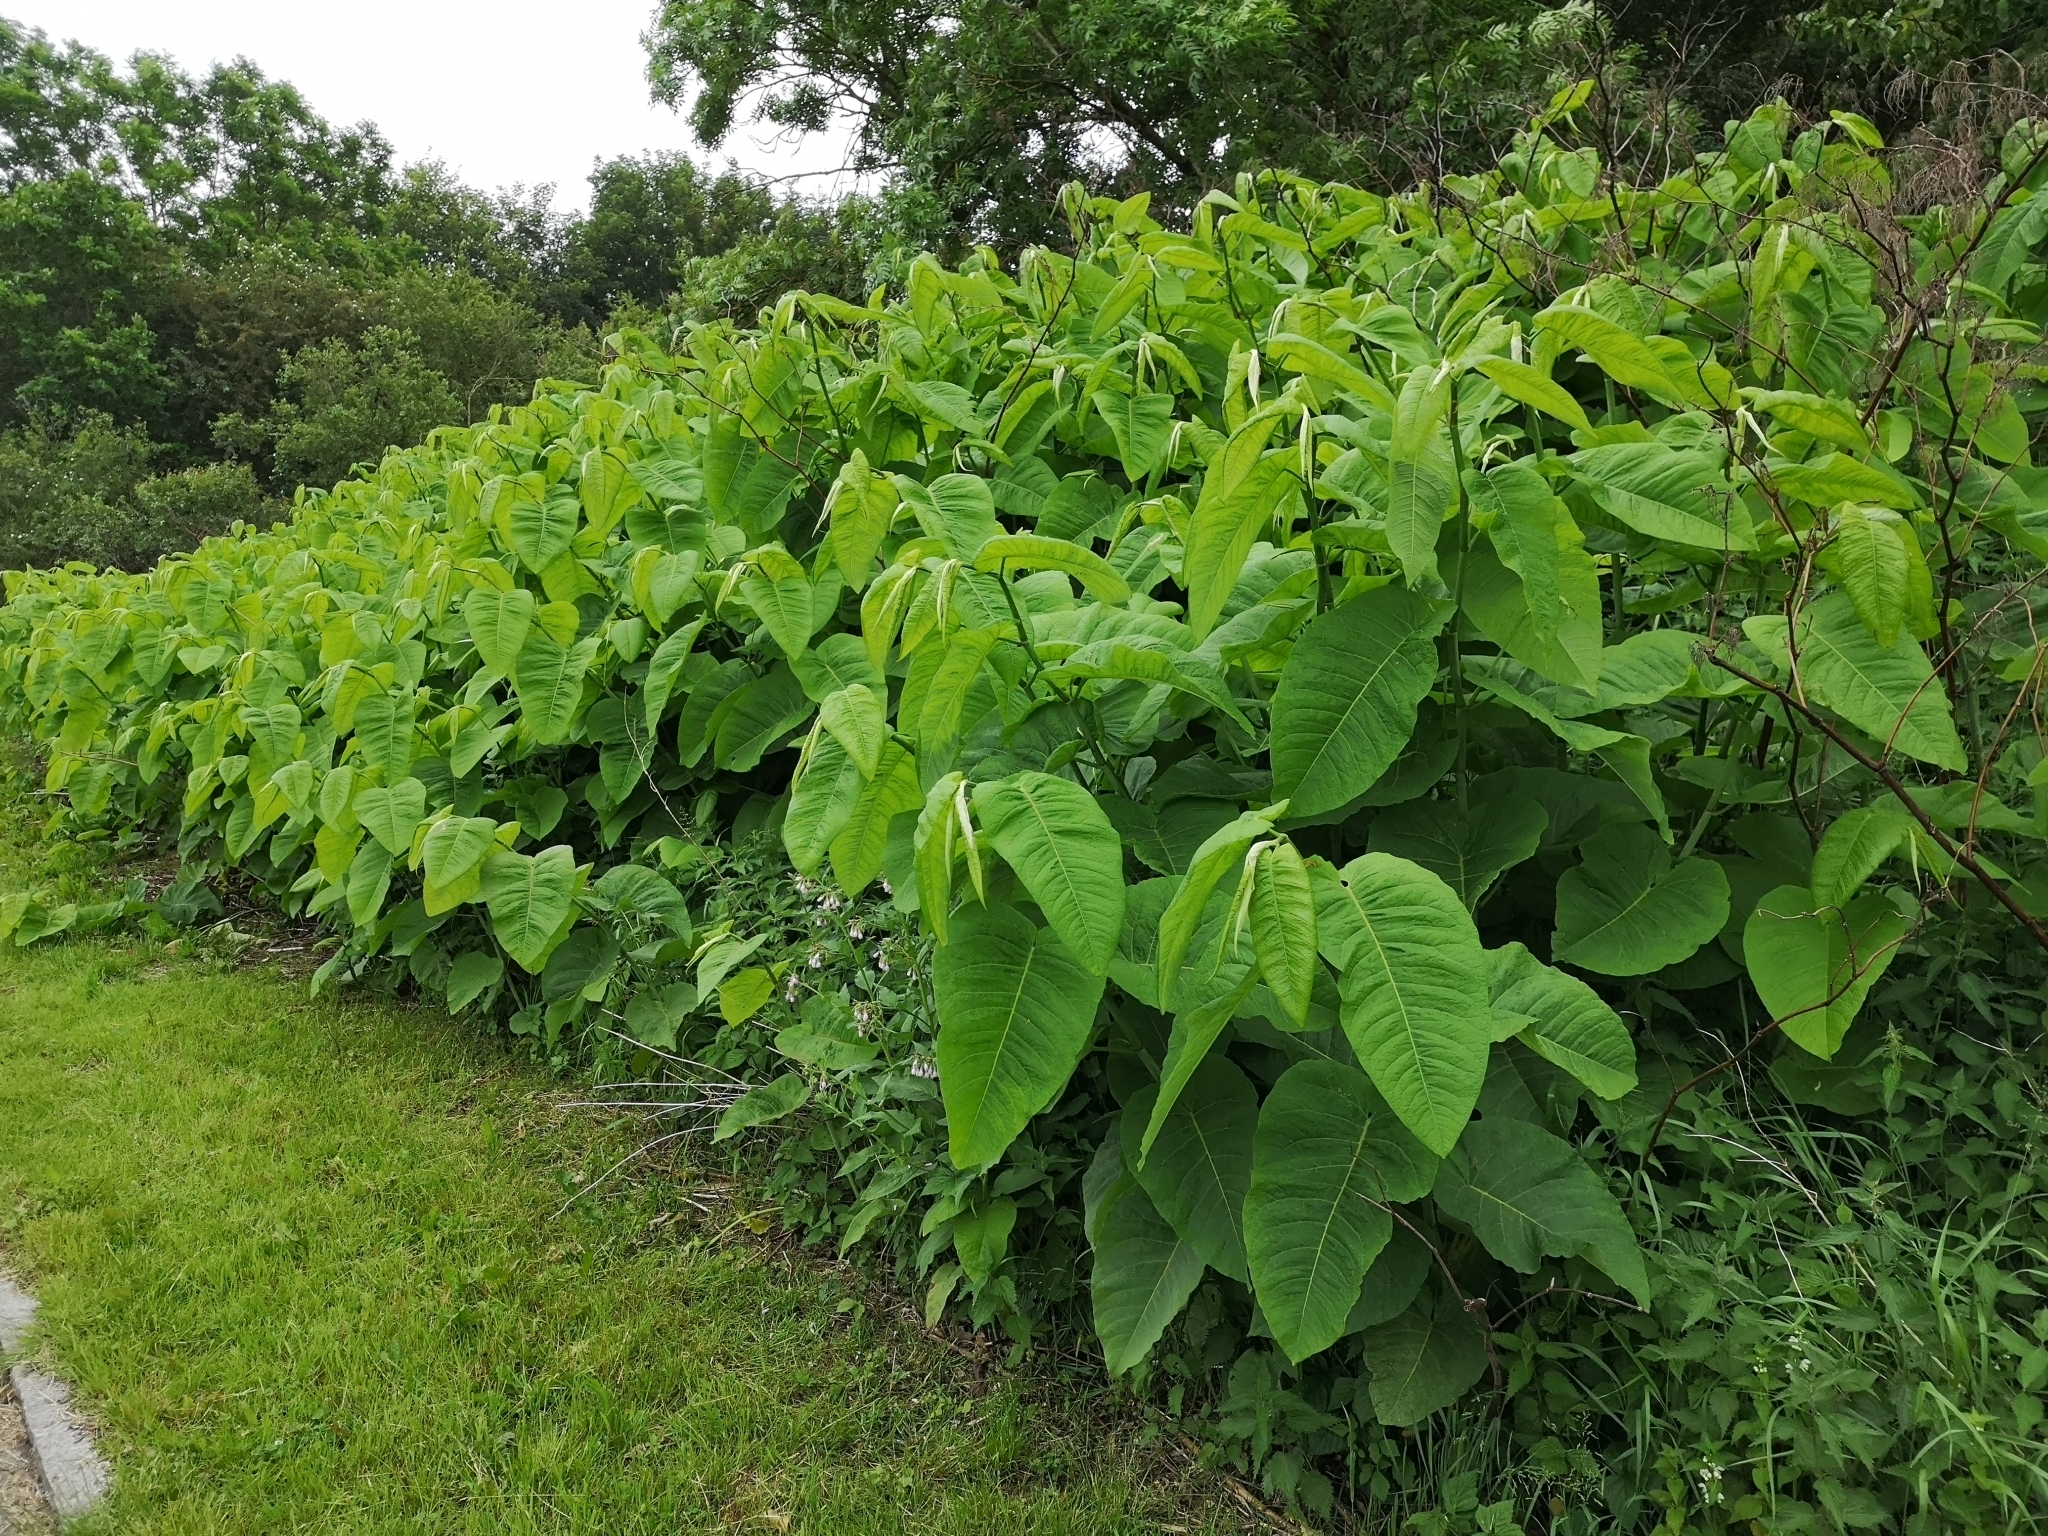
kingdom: Plantae
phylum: Tracheophyta
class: Magnoliopsida
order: Caryophyllales
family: Polygonaceae
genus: Reynoutria
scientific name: Reynoutria sachalinensis
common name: Giant knotweed
